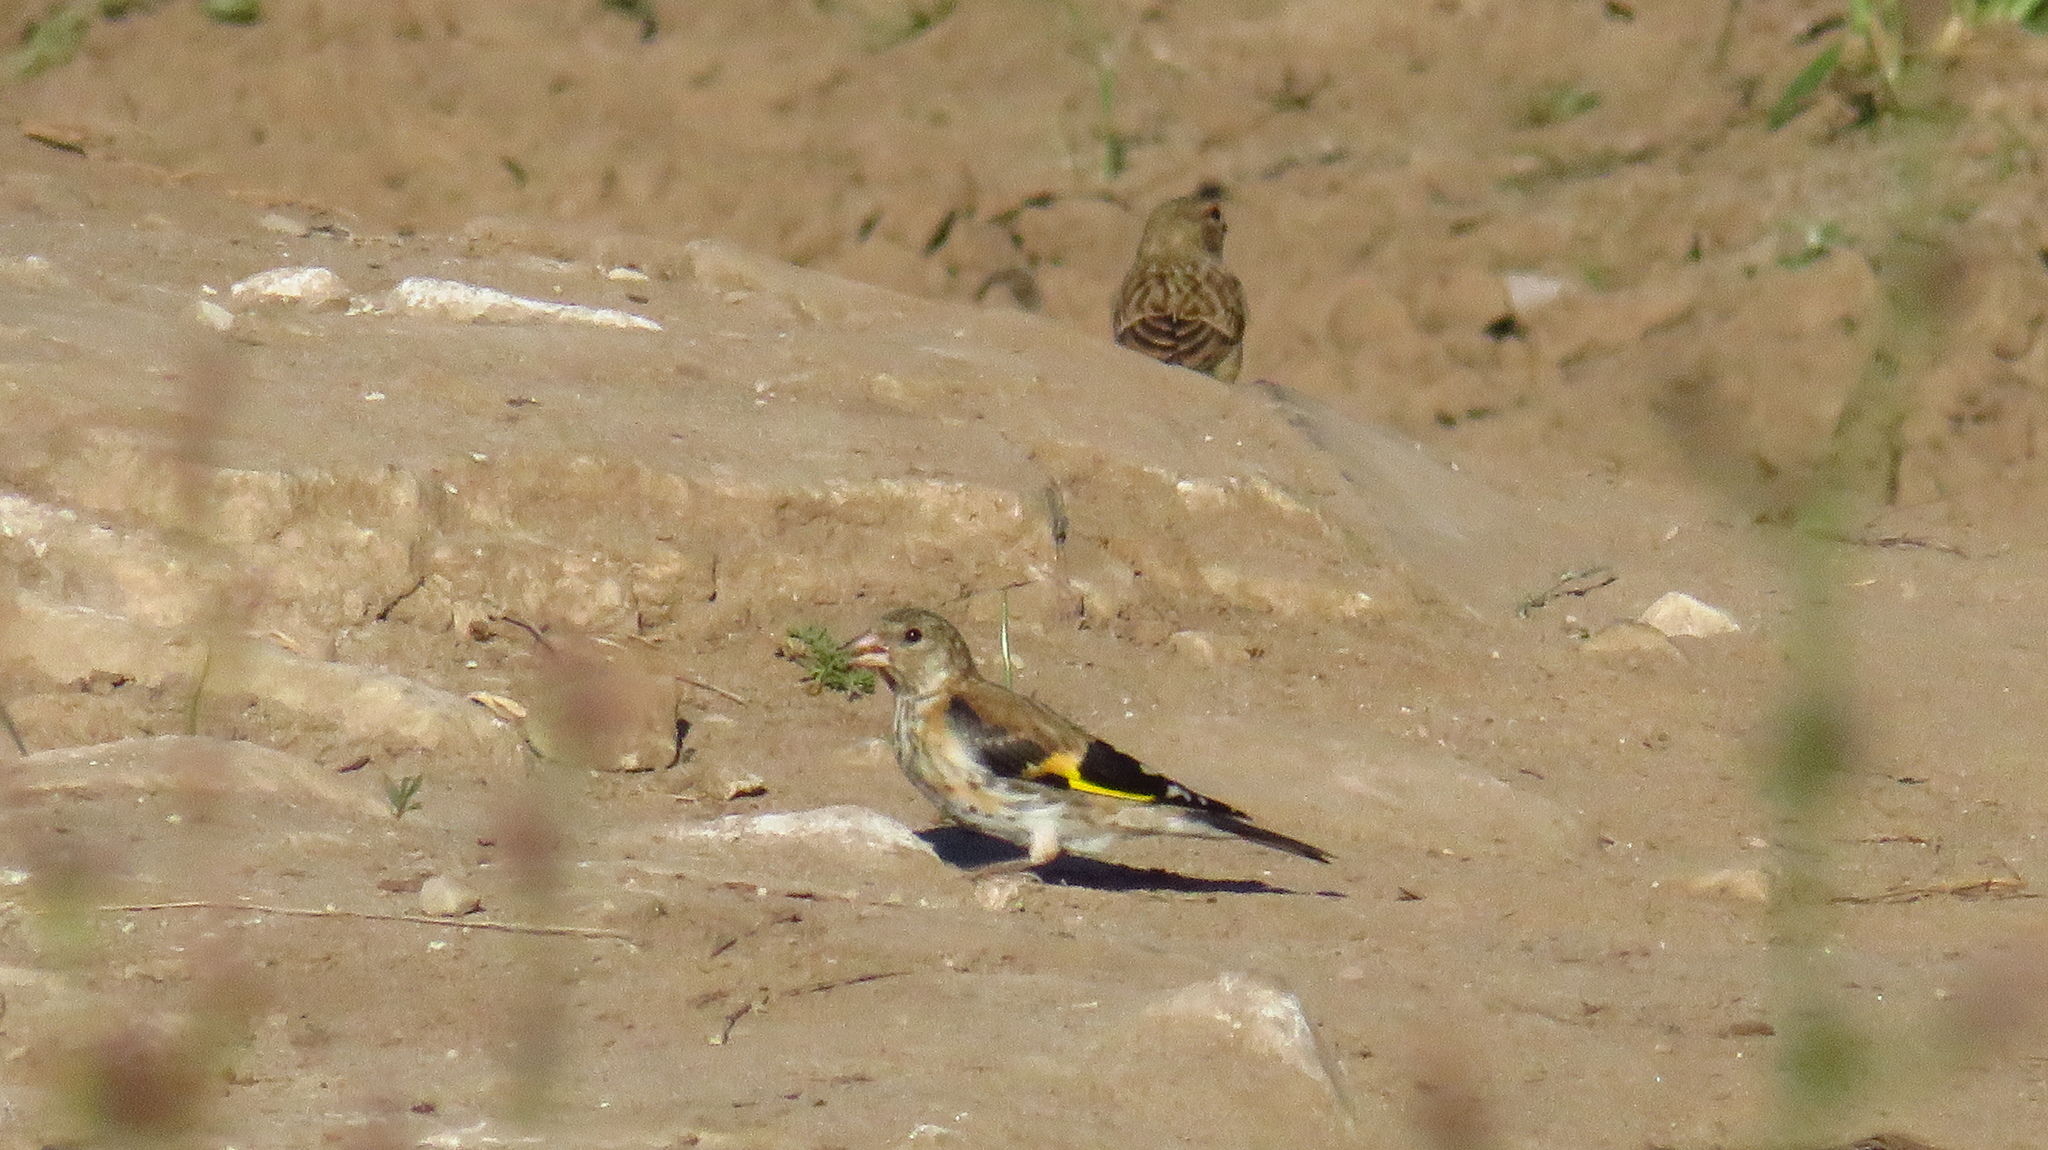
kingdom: Animalia
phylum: Chordata
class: Aves
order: Passeriformes
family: Fringillidae
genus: Carduelis
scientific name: Carduelis carduelis
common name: European goldfinch
